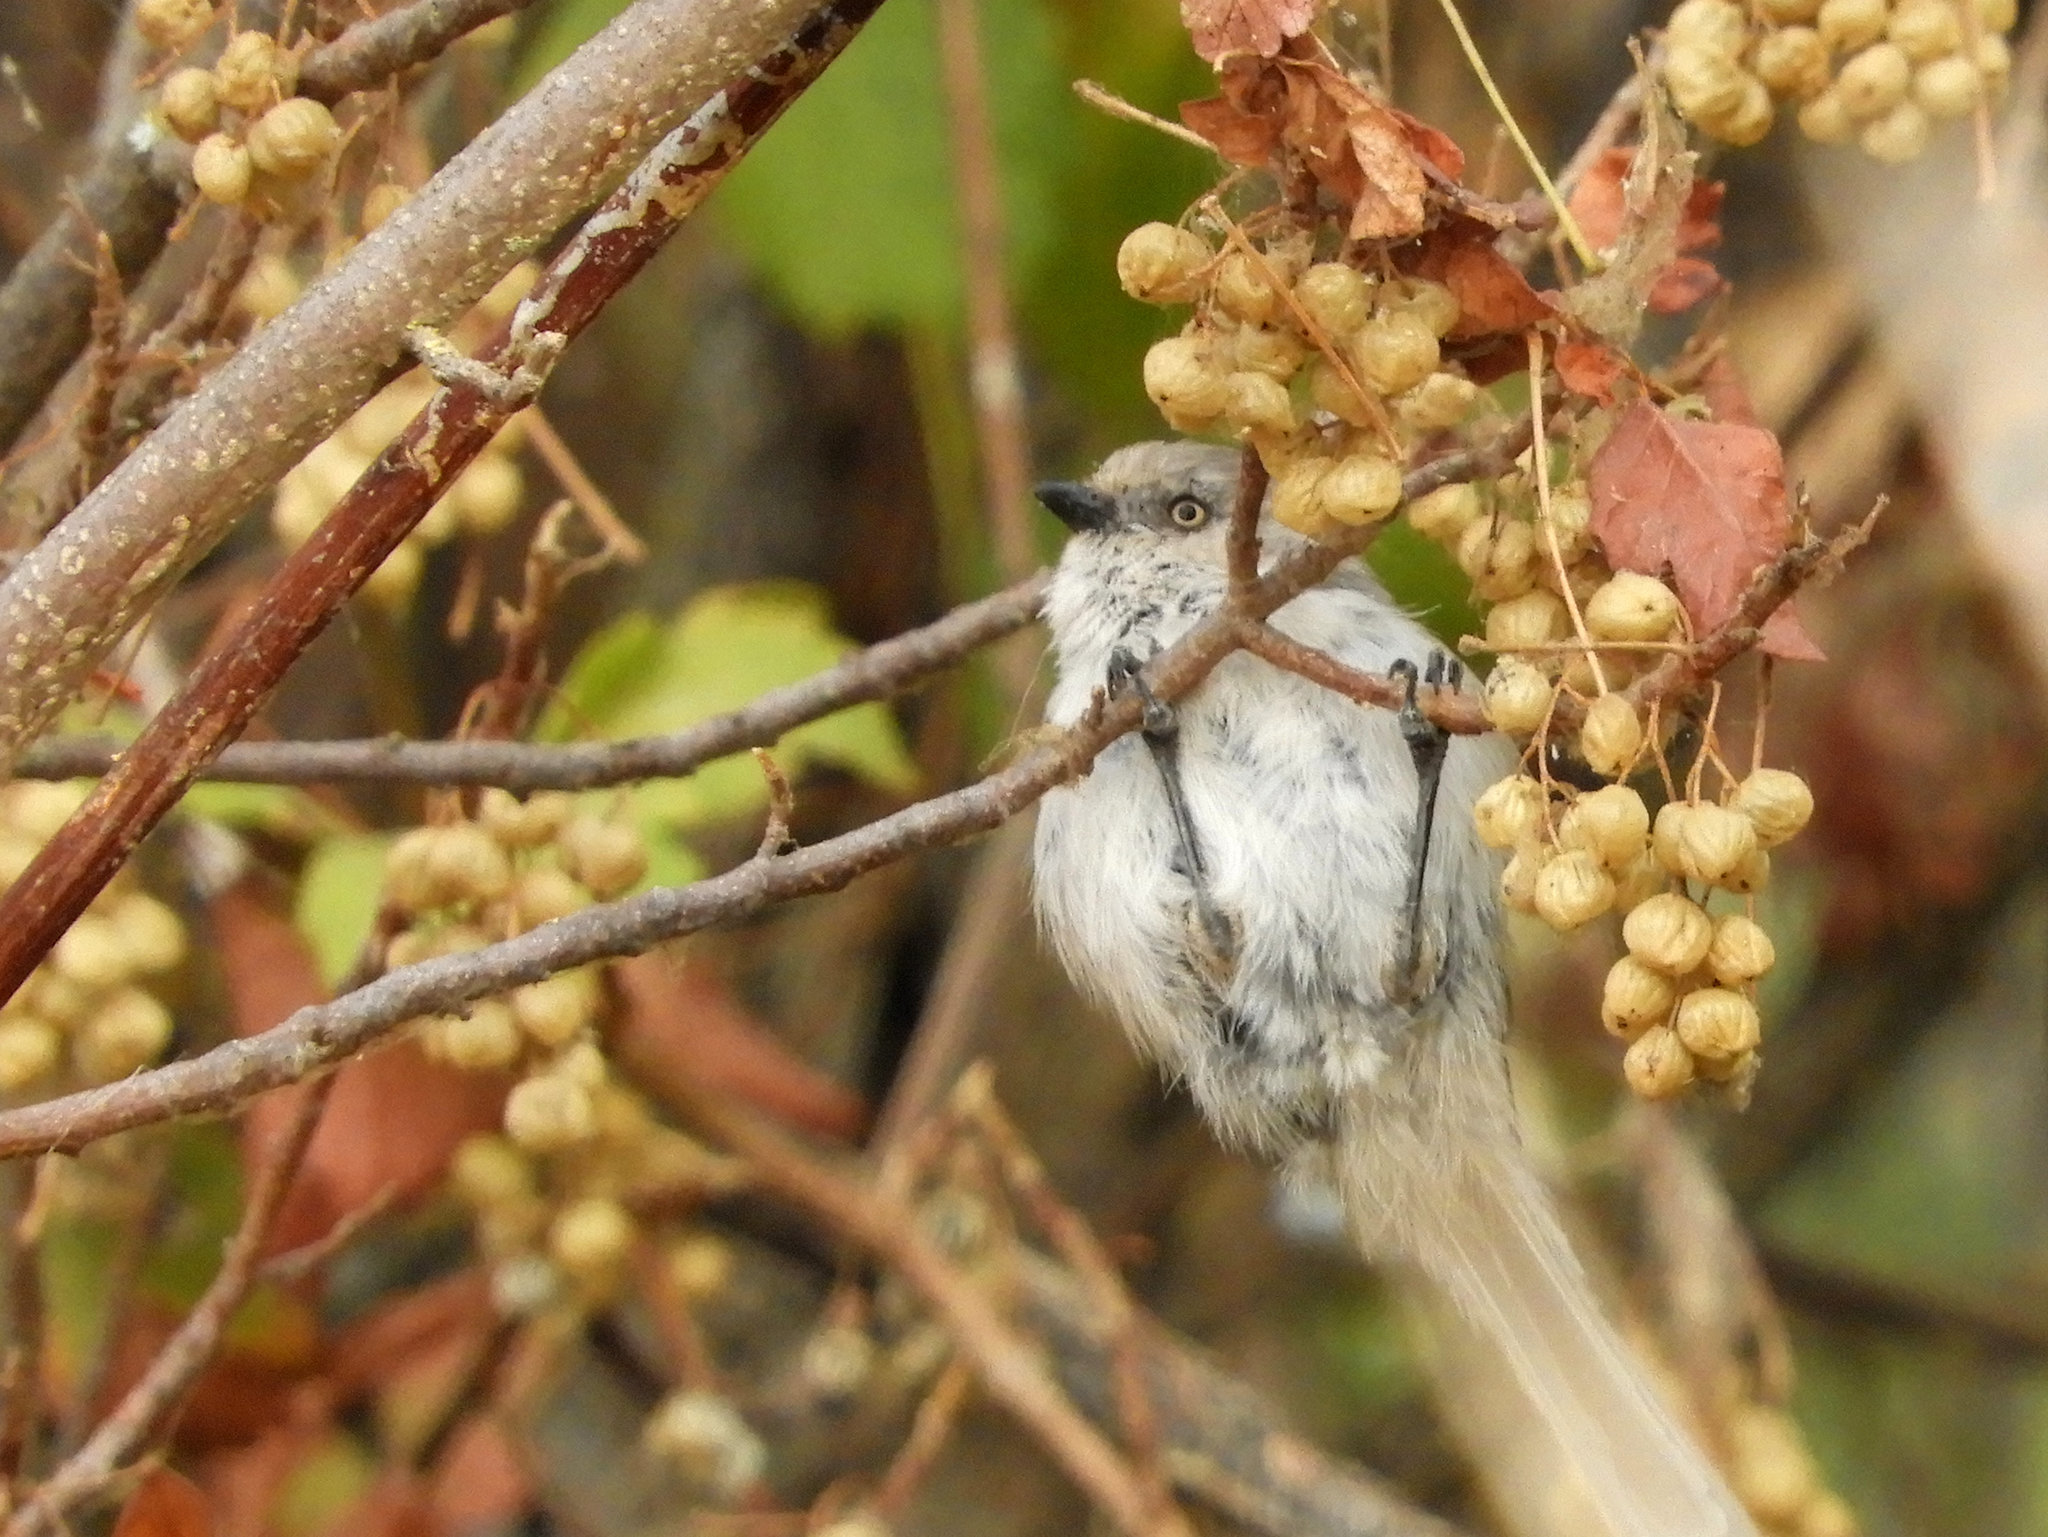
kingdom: Animalia
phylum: Chordata
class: Aves
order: Passeriformes
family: Aegithalidae
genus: Psaltriparus
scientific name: Psaltriparus minimus
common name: American bushtit
